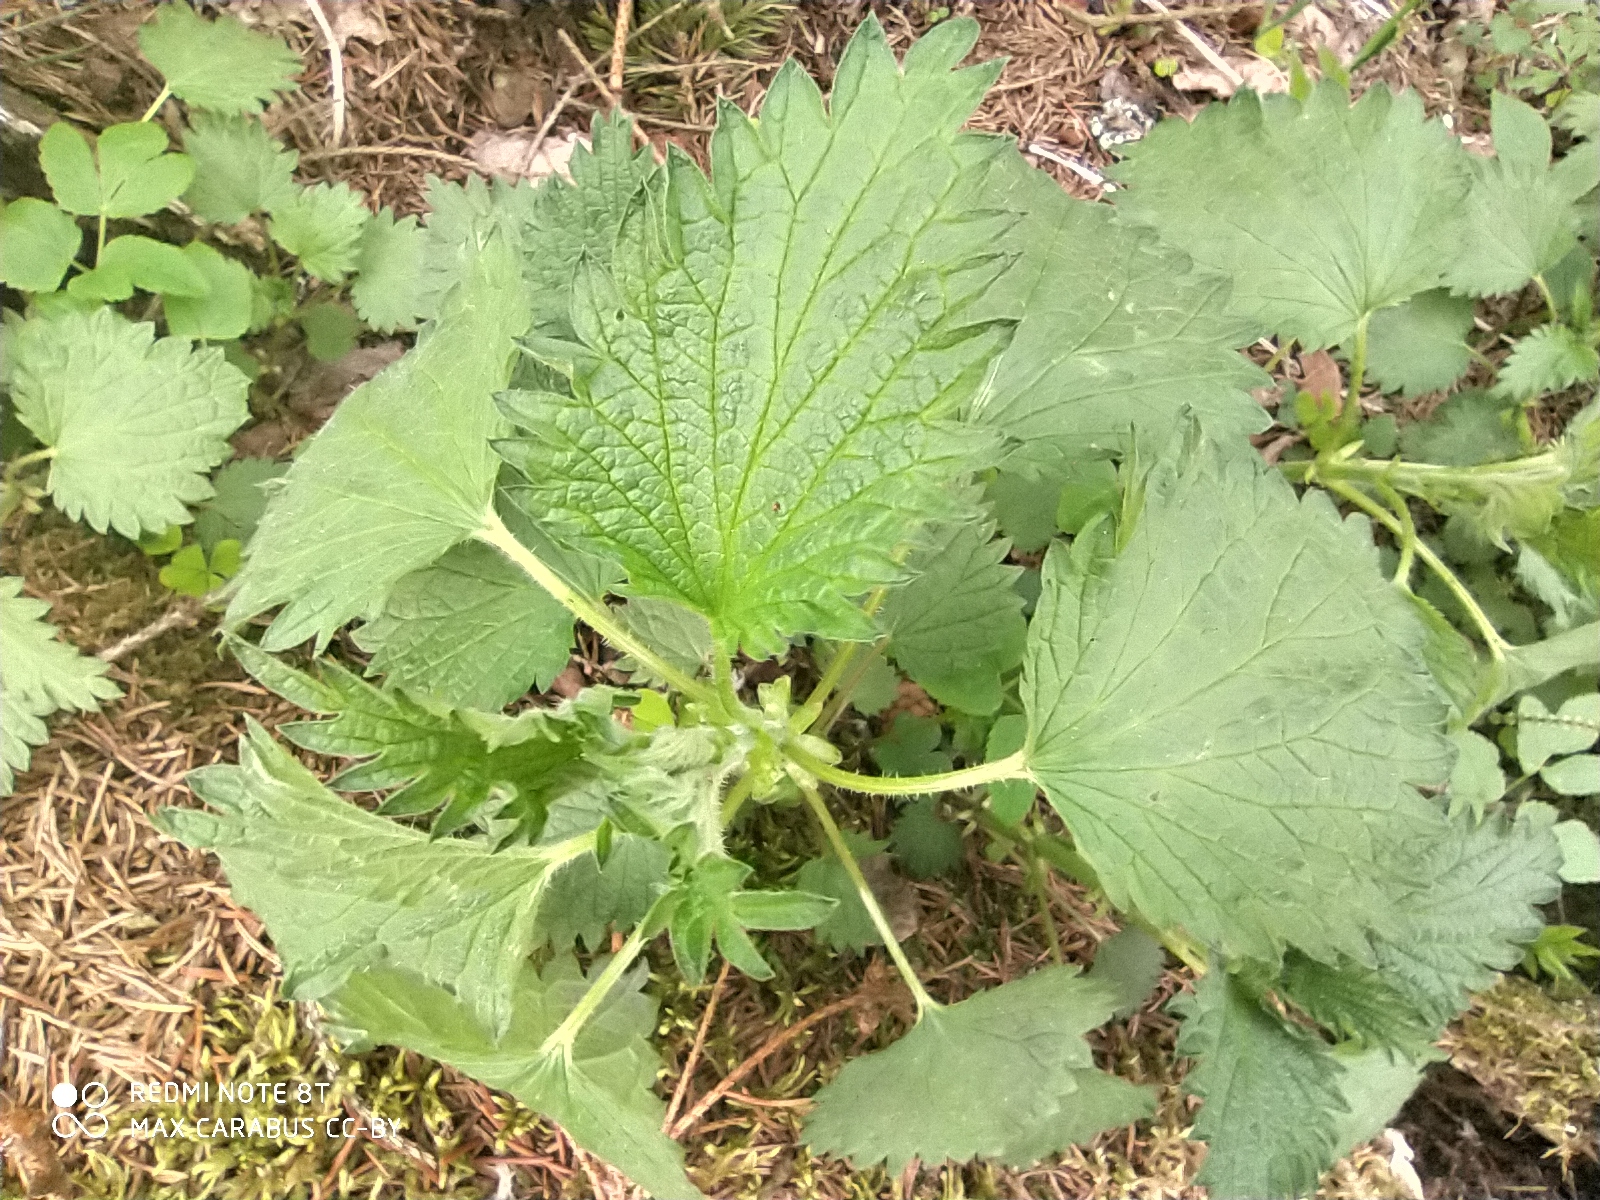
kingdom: Plantae
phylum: Tracheophyta
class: Magnoliopsida
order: Rosales
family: Urticaceae
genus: Urtica
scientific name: Urtica dioica
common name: Common nettle
